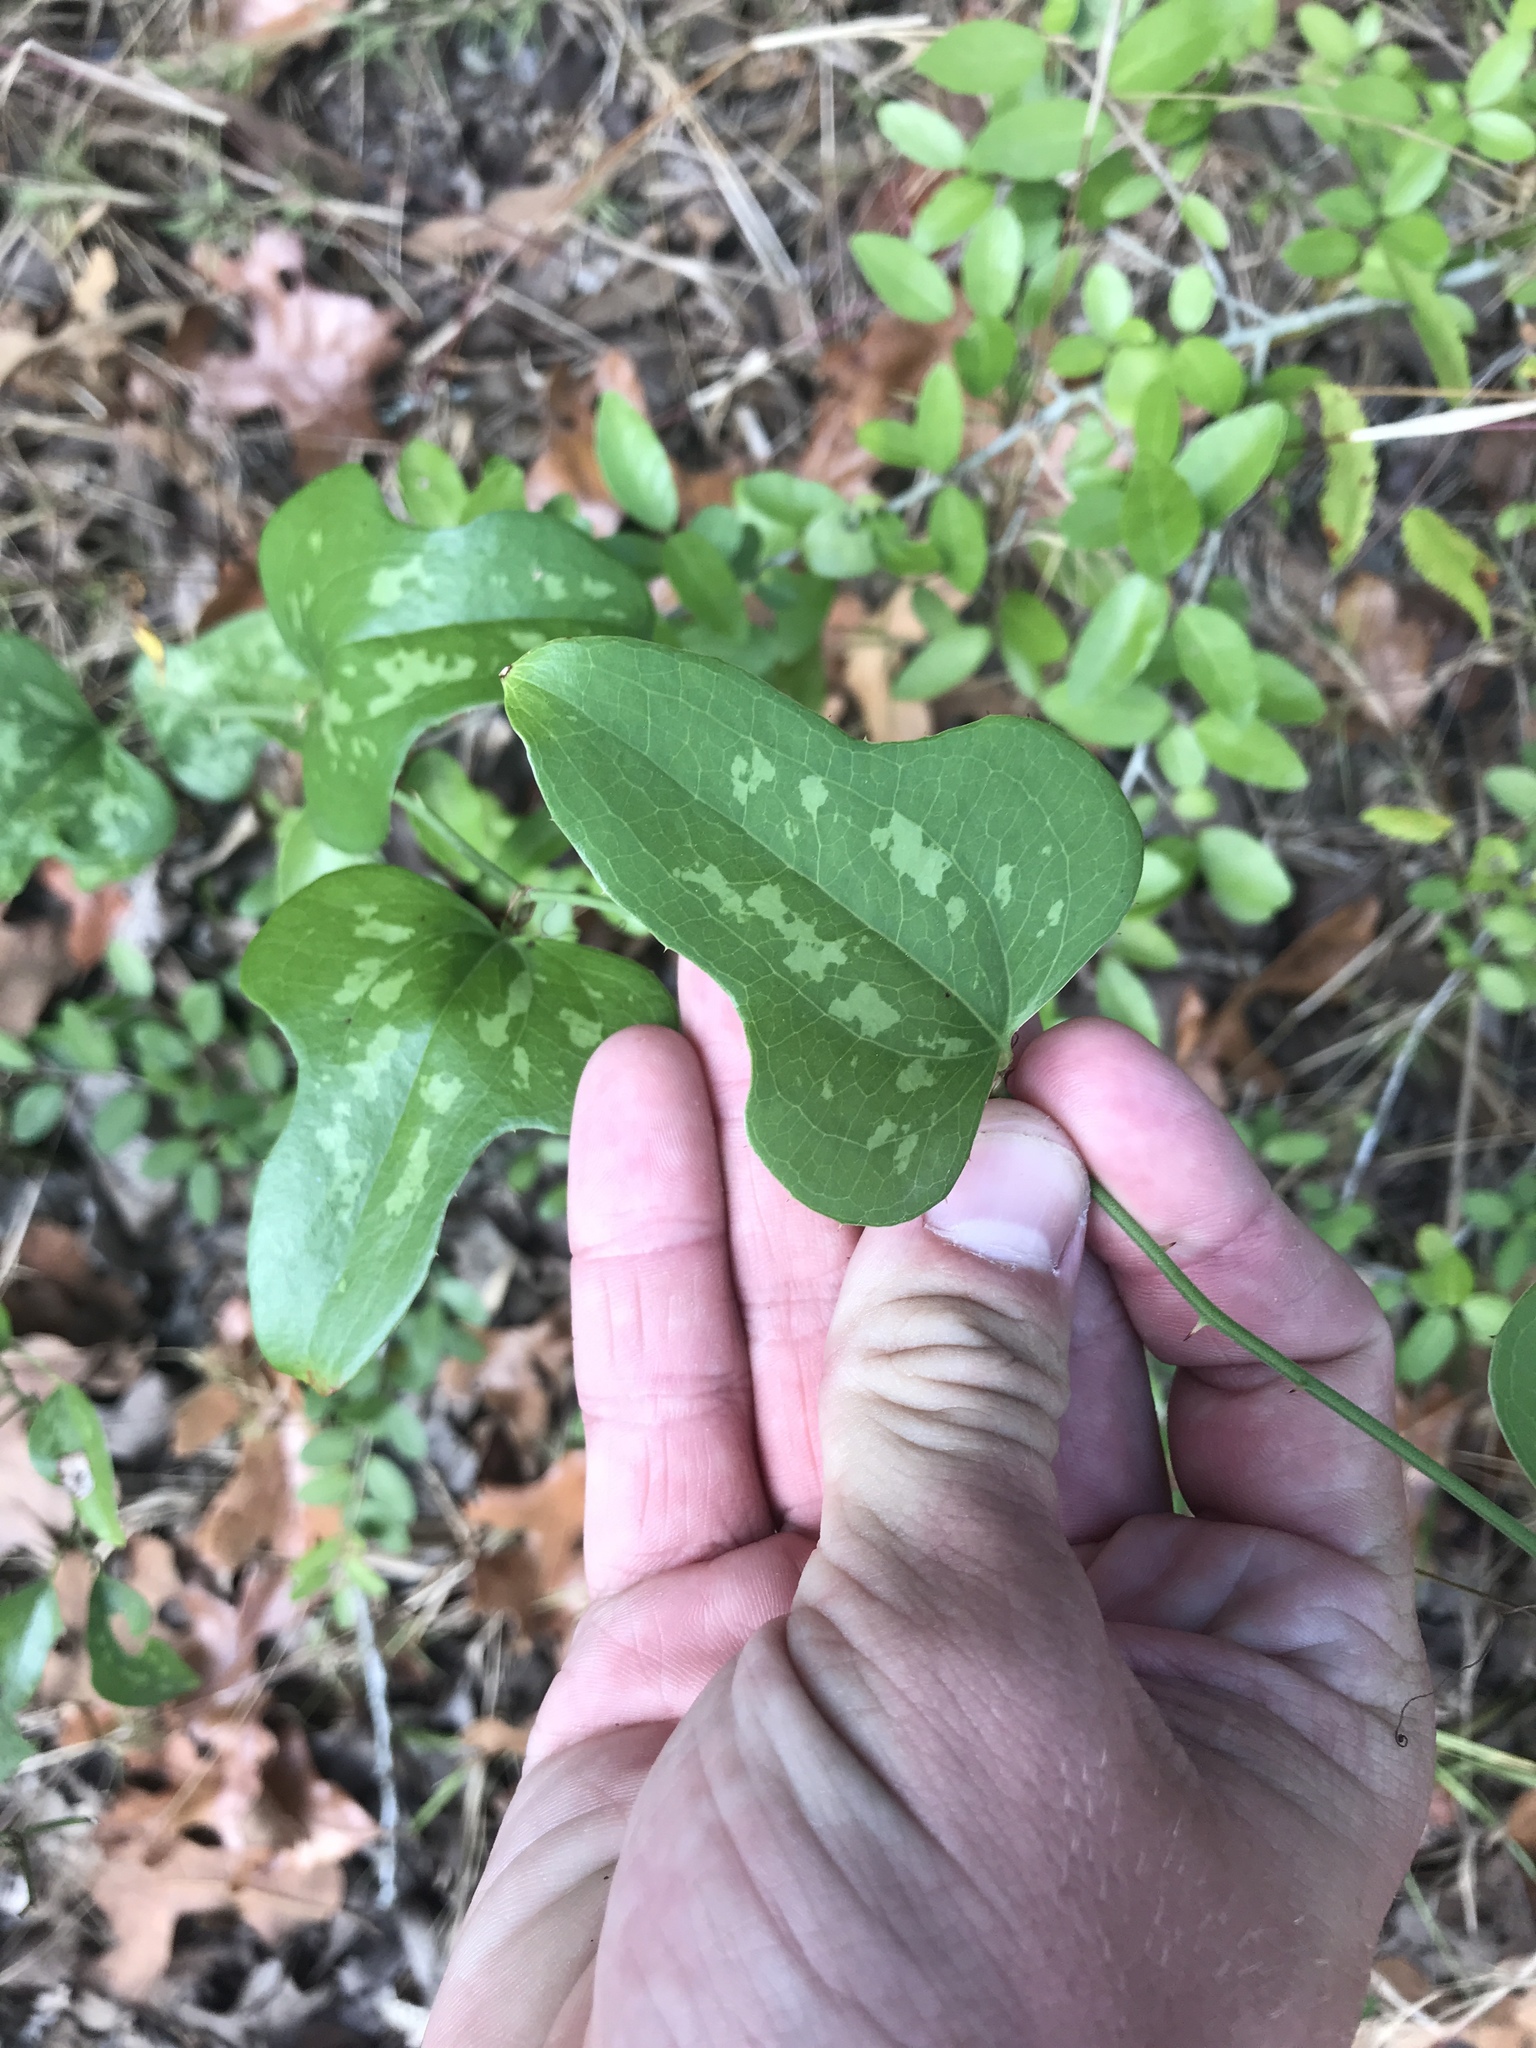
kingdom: Plantae
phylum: Tracheophyta
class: Liliopsida
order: Liliales
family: Smilacaceae
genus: Smilax
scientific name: Smilax bona-nox
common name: Catbrier
